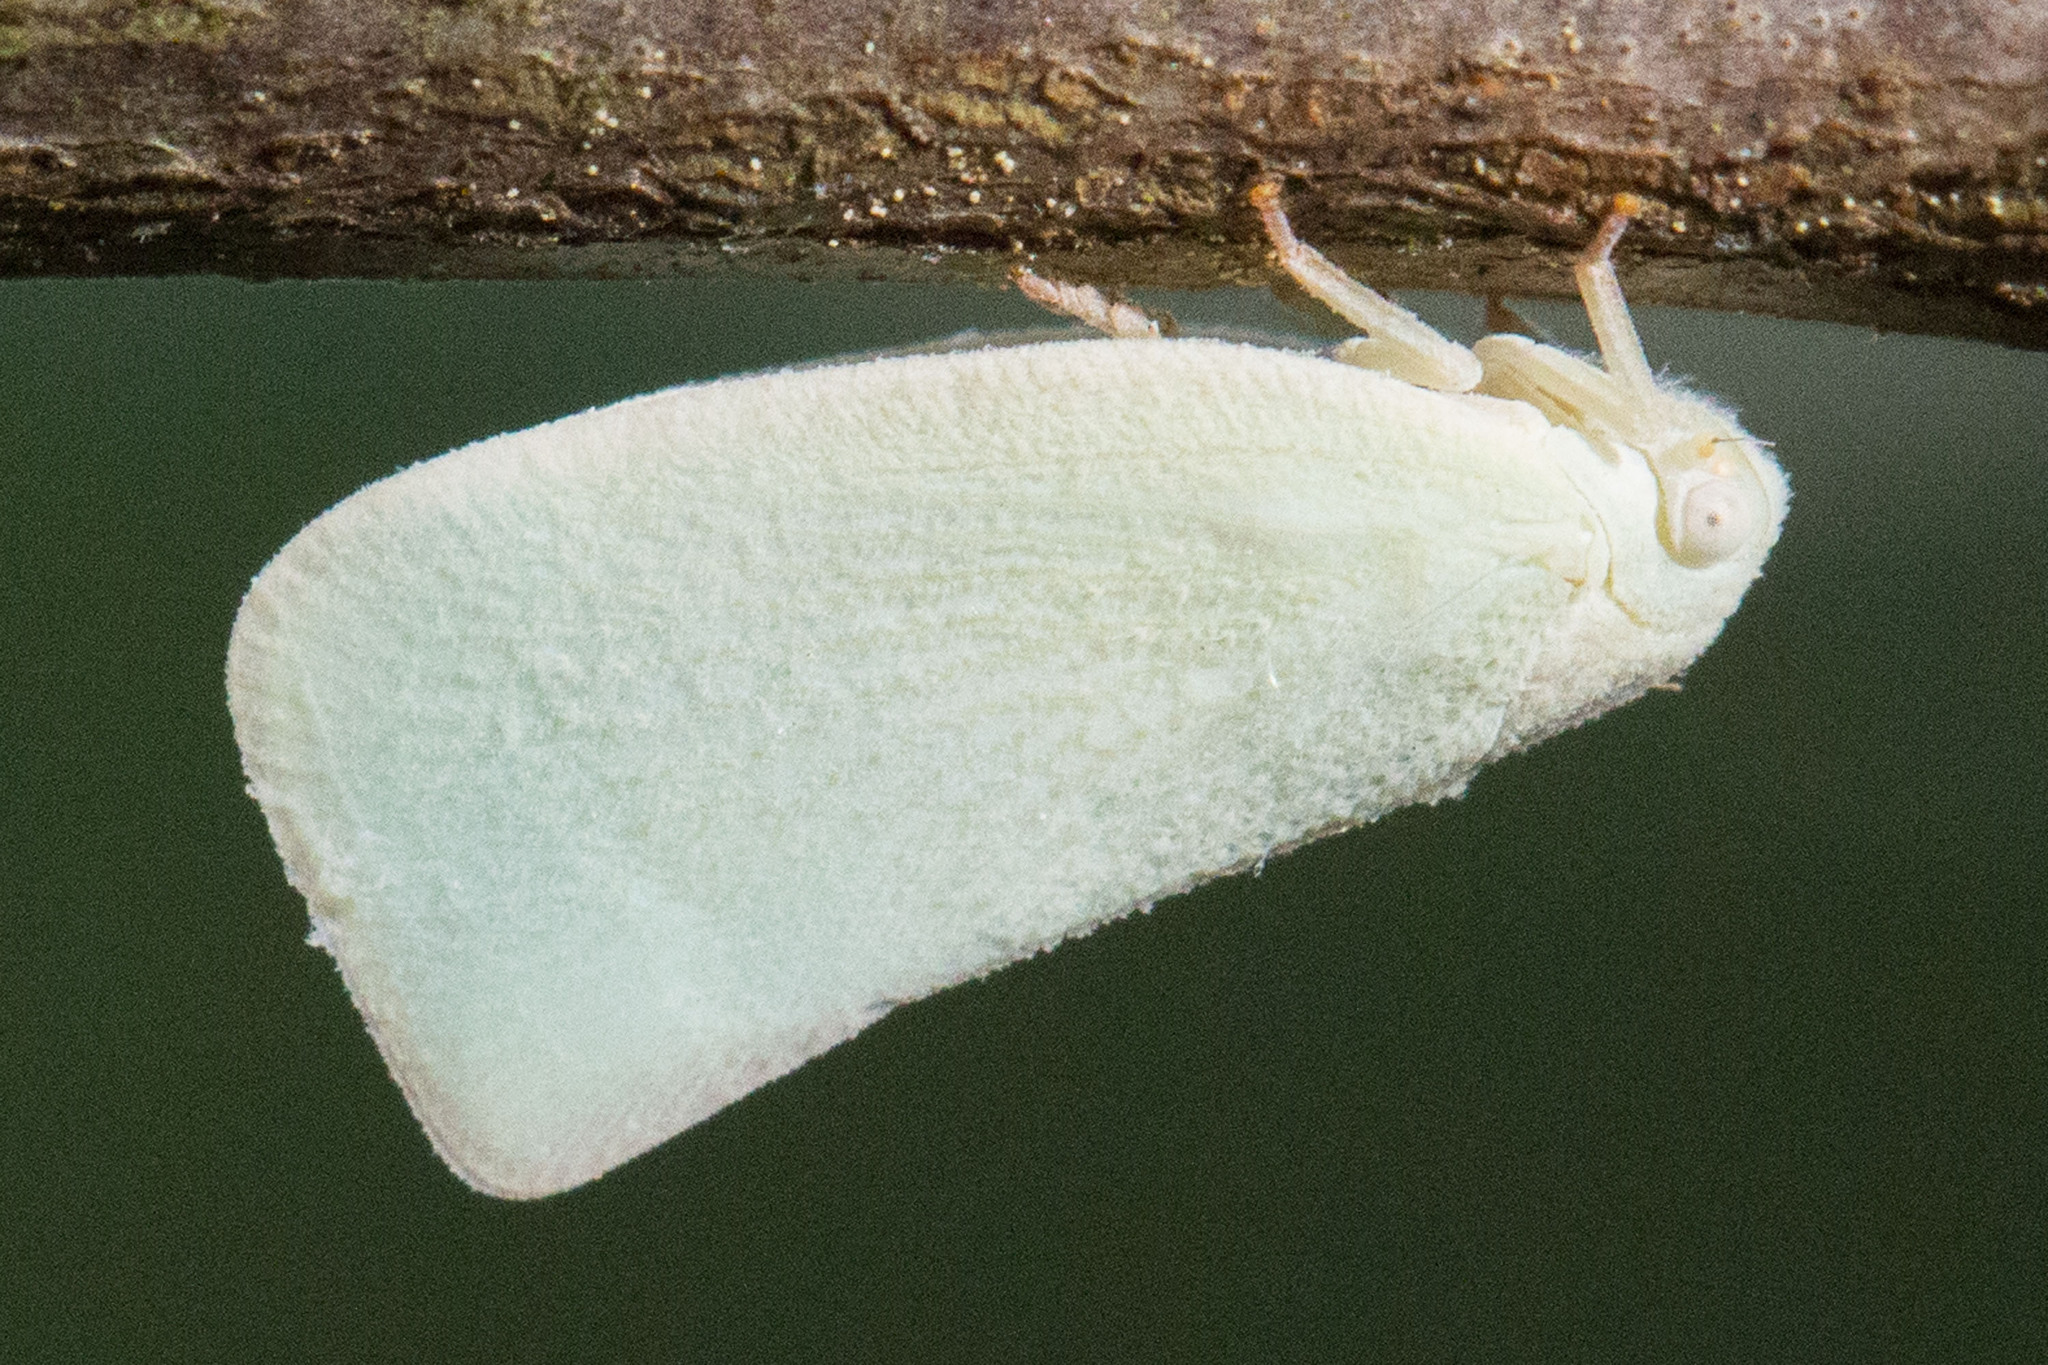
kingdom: Animalia
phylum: Arthropoda
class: Insecta
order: Hemiptera
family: Flatidae
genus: Flatormenis
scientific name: Flatormenis proxima
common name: Northern flatid planthopper
